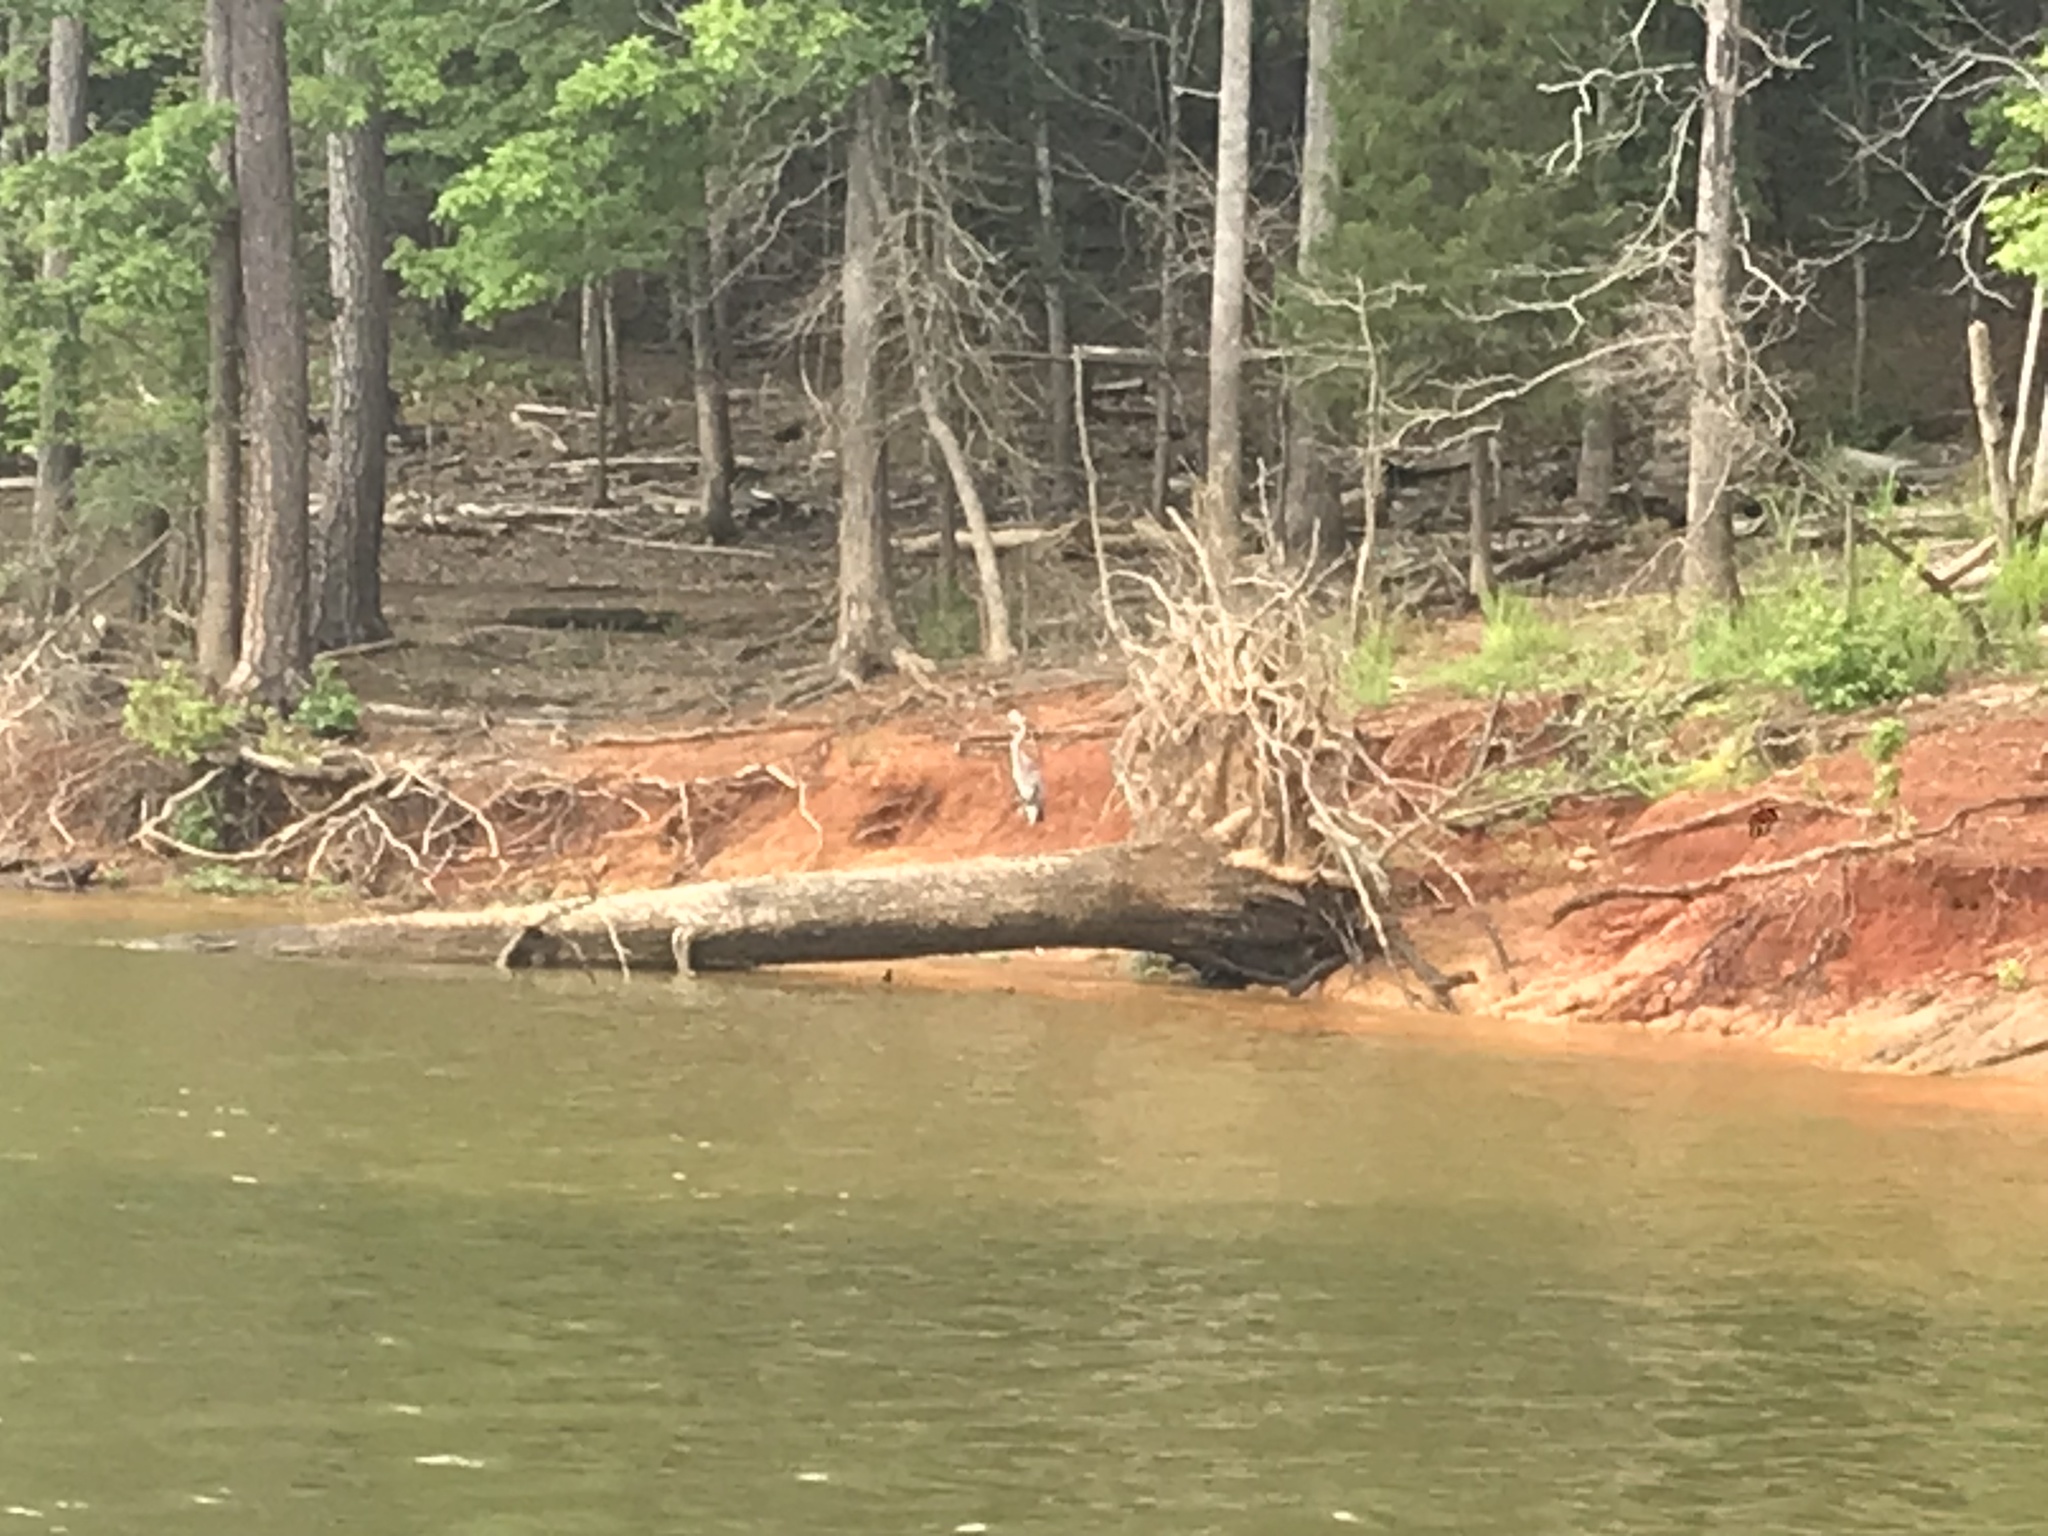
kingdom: Animalia
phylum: Chordata
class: Aves
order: Pelecaniformes
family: Ardeidae
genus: Ardea
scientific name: Ardea herodias
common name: Great blue heron
